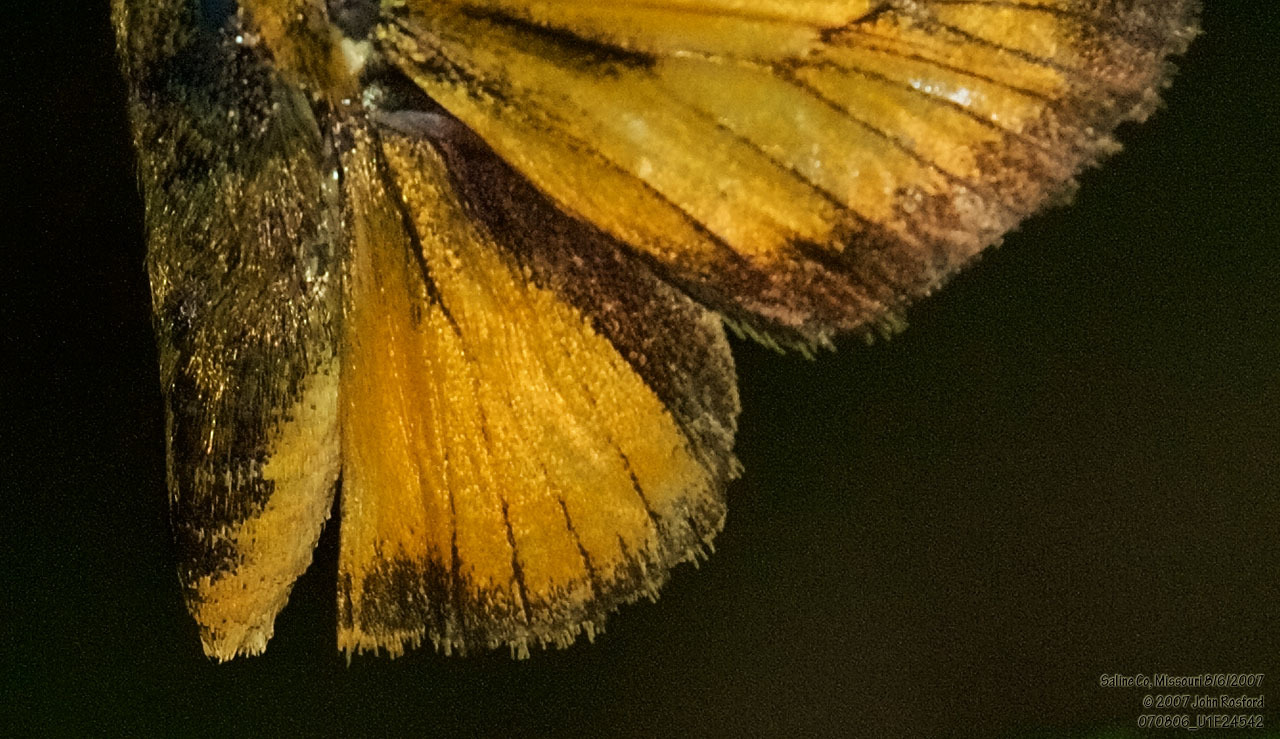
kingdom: Animalia
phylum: Arthropoda
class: Insecta
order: Lepidoptera
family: Hesperiidae
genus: Atrytone
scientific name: Atrytone delaware
